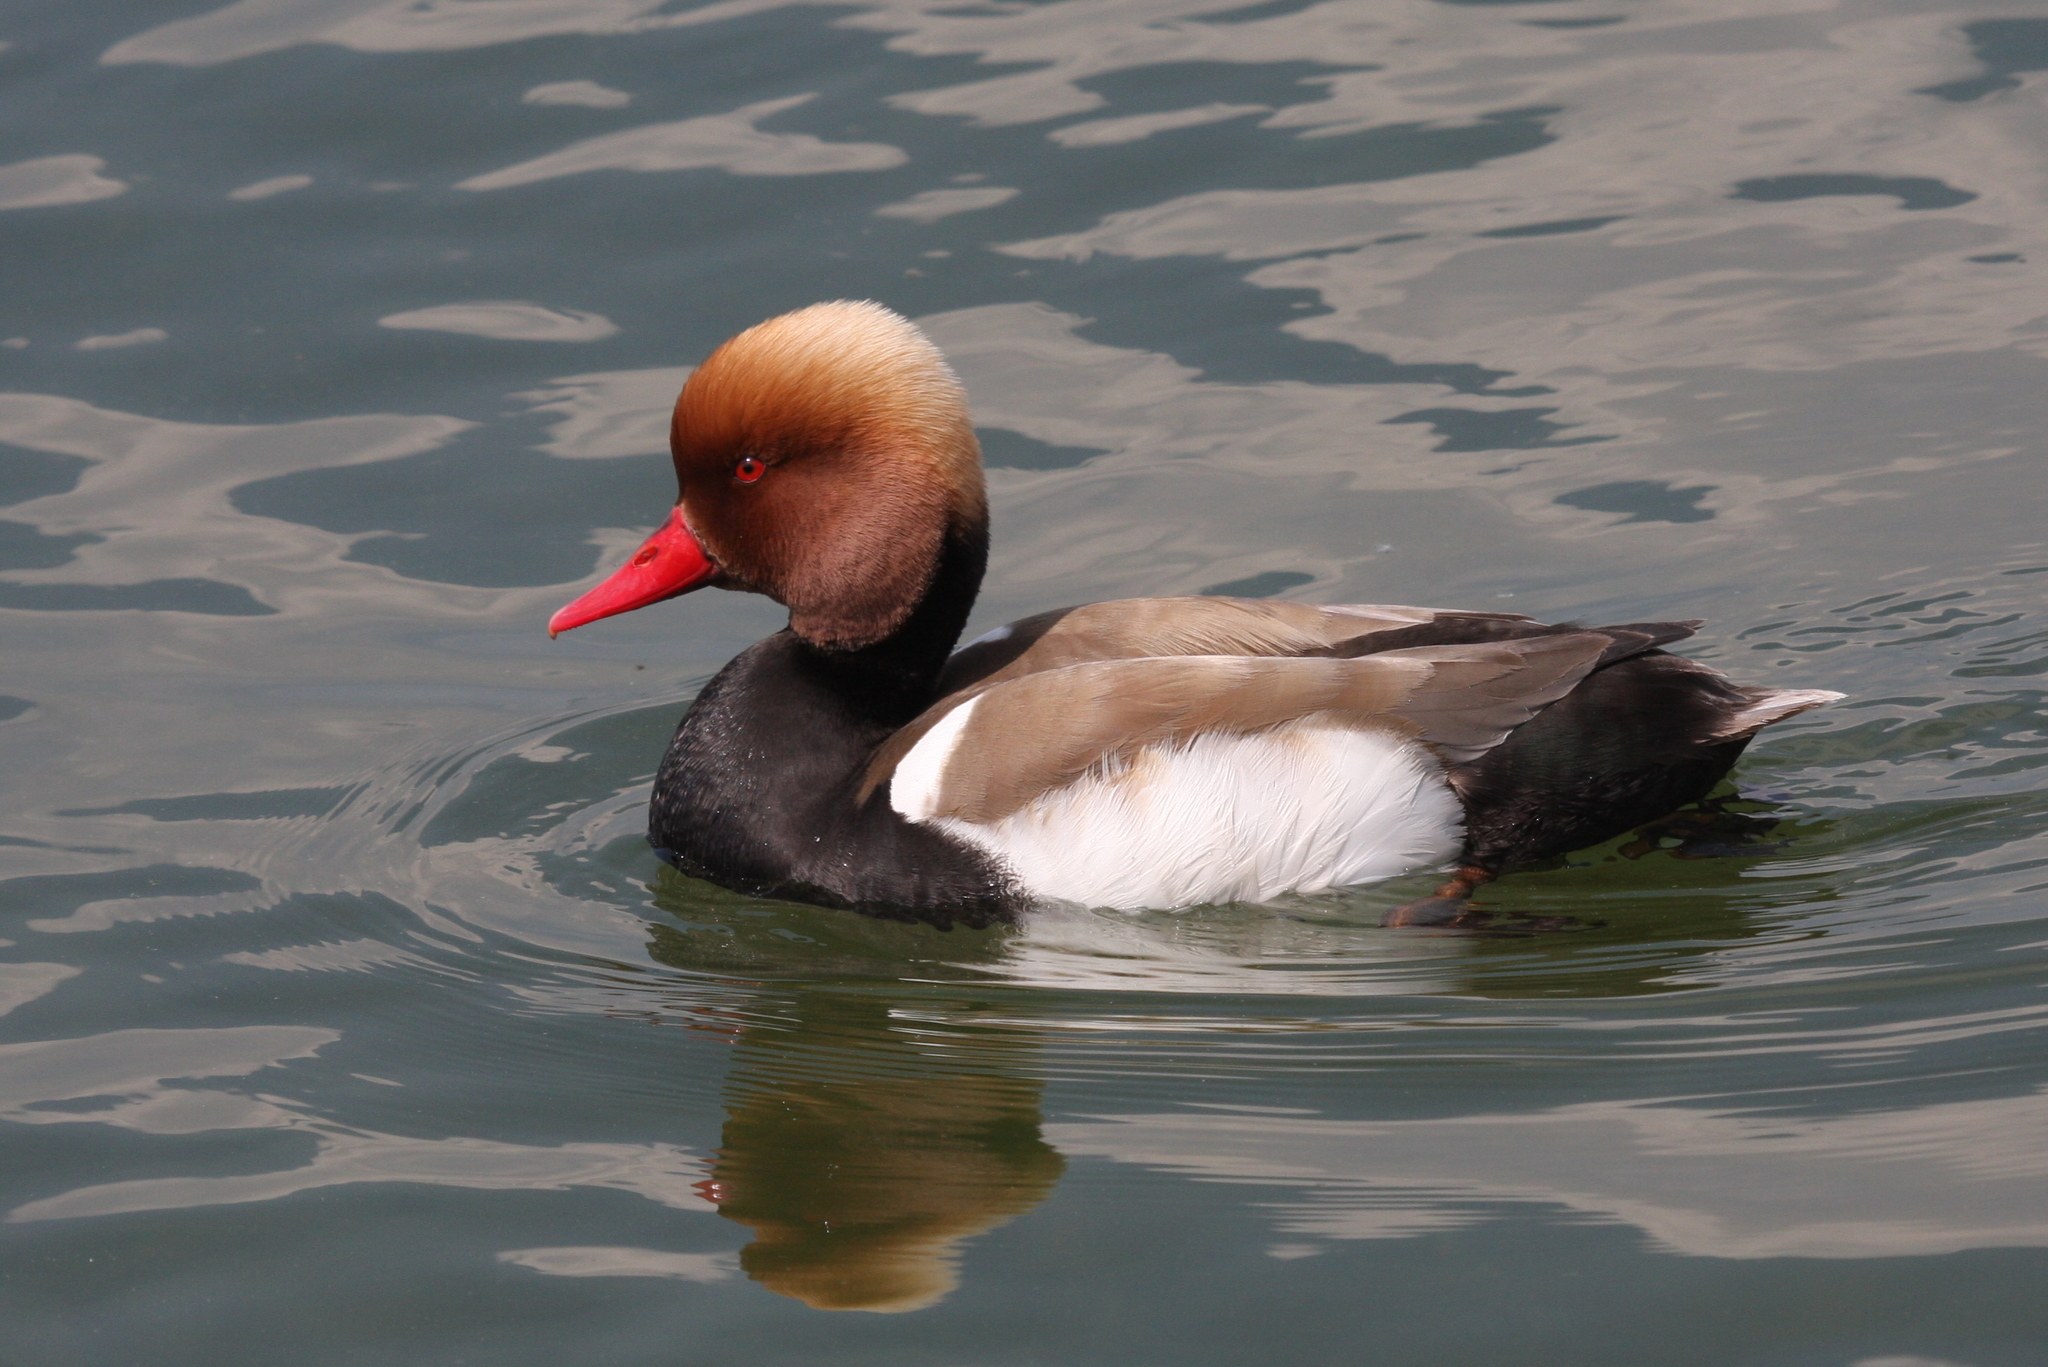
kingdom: Animalia
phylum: Chordata
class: Aves
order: Anseriformes
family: Anatidae
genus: Netta
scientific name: Netta rufina
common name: Red-crested pochard
